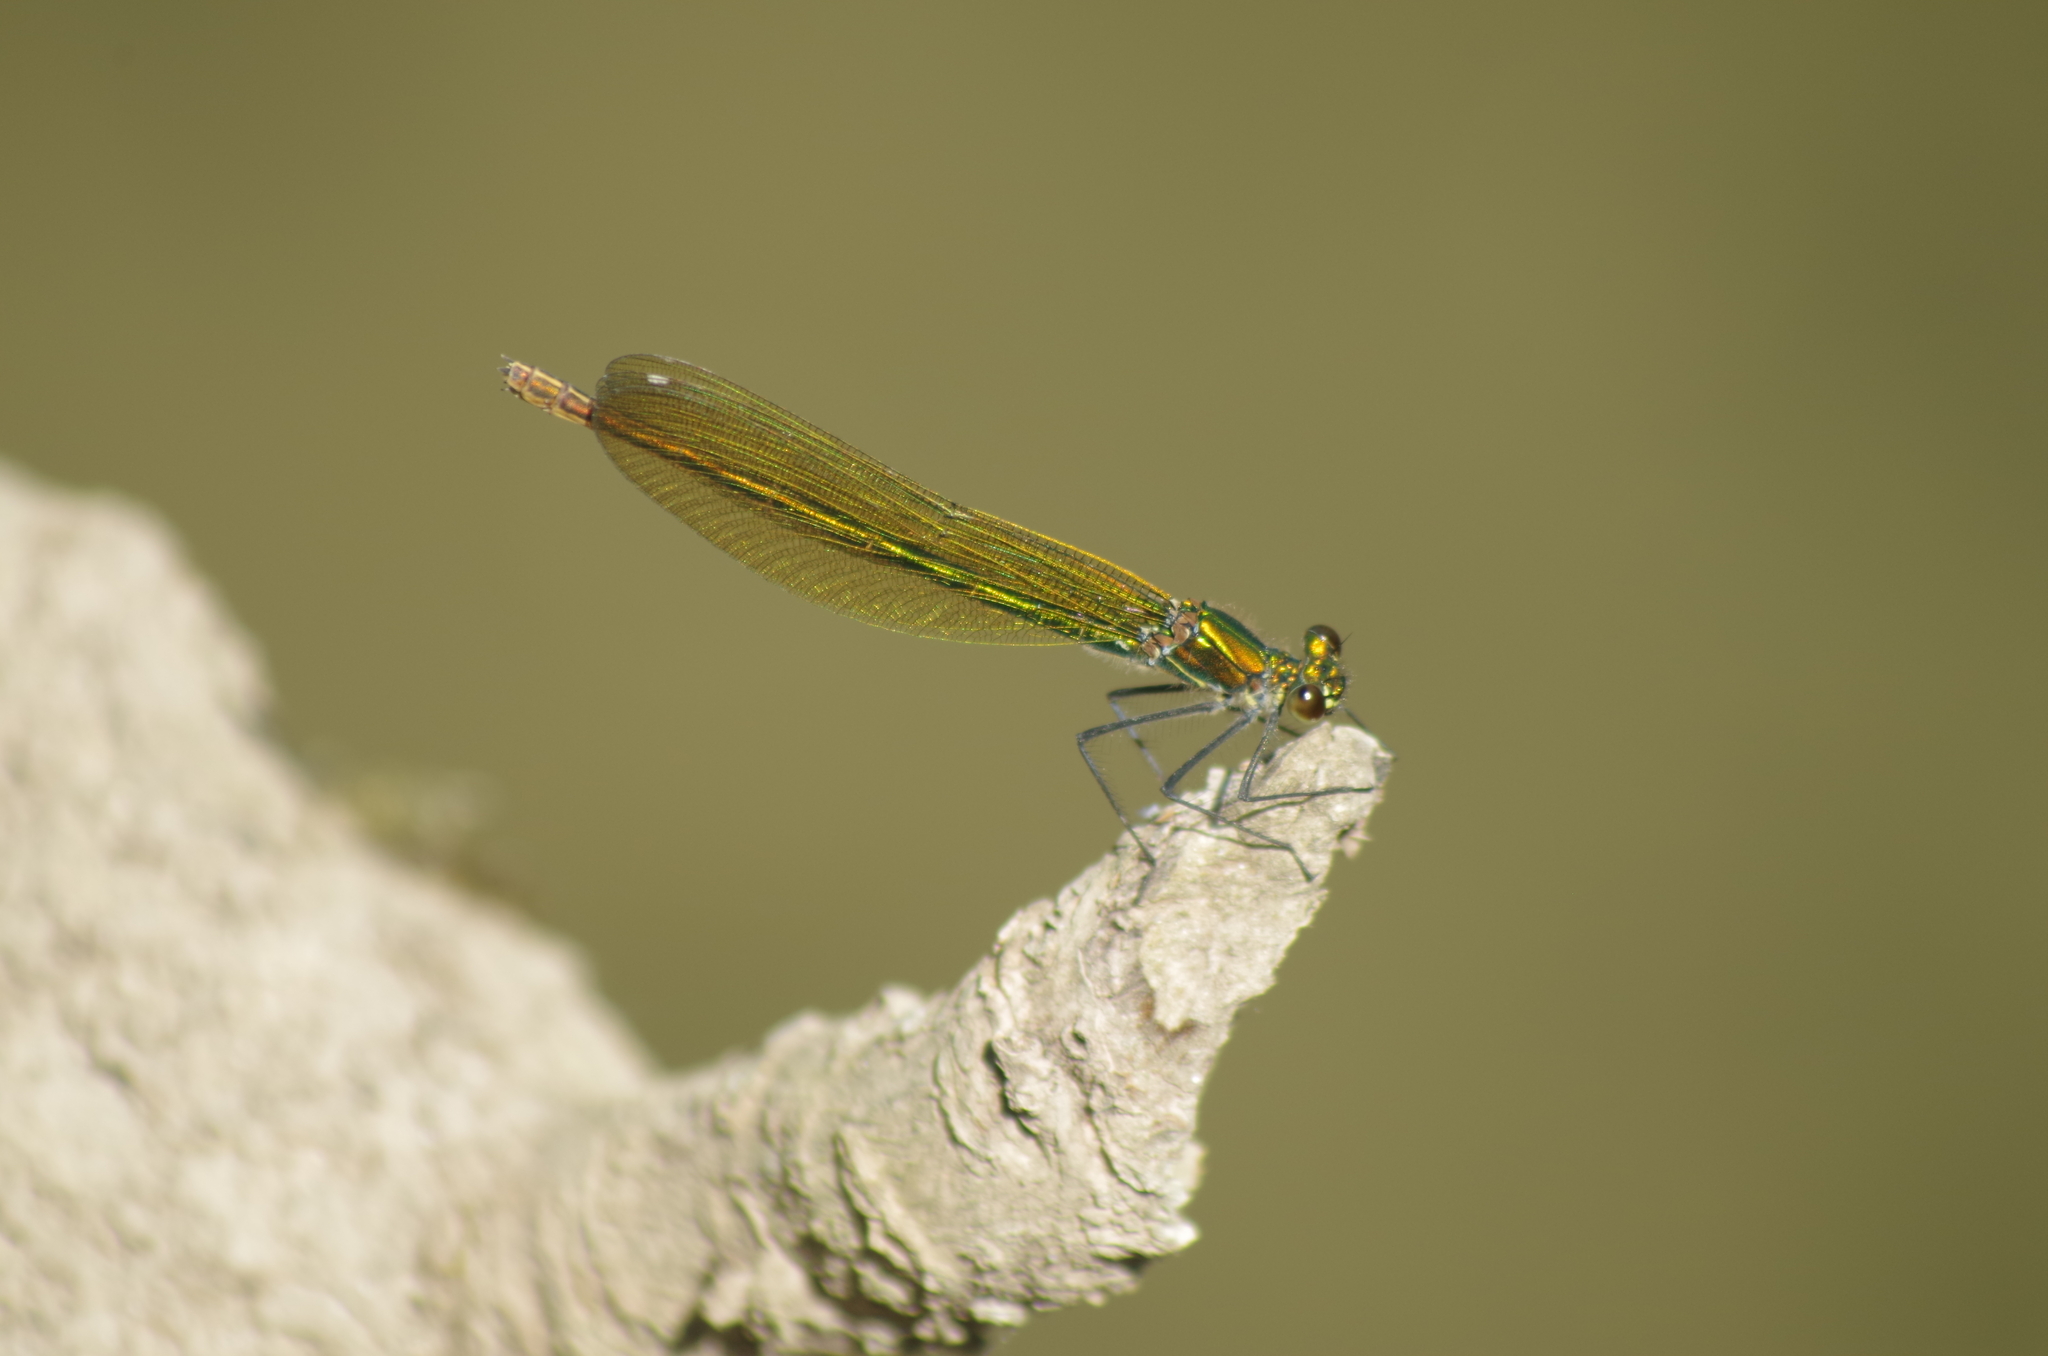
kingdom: Animalia
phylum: Arthropoda
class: Insecta
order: Odonata
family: Calopterygidae
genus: Calopteryx
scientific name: Calopteryx splendens
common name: Banded demoiselle
